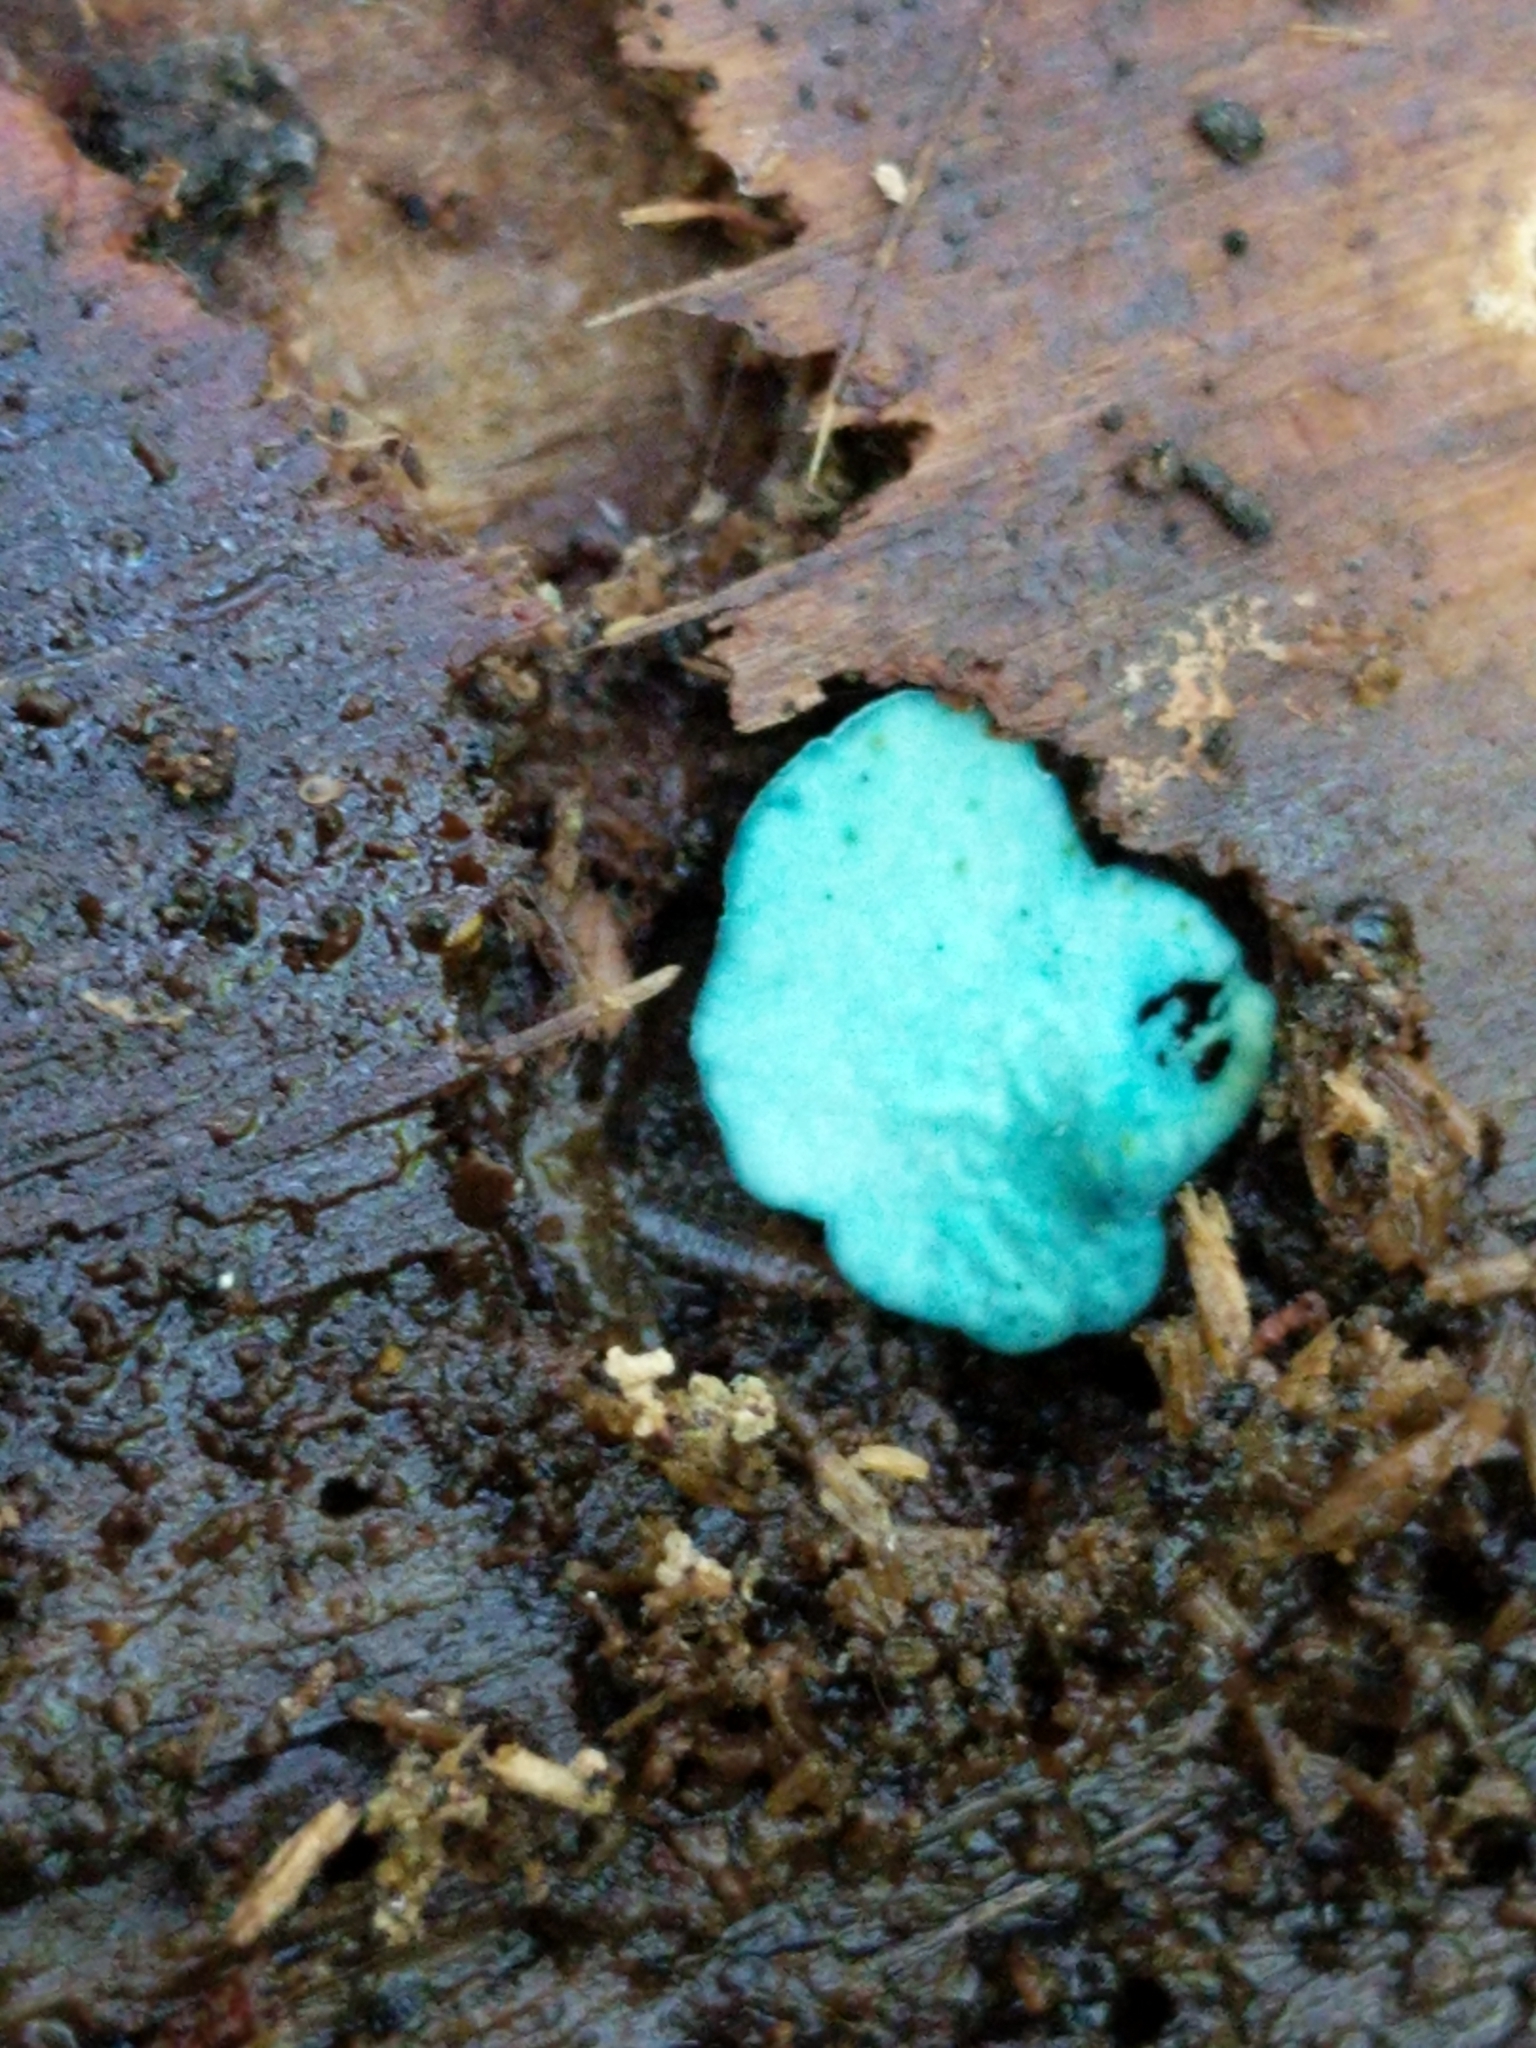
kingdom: Fungi
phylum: Ascomycota
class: Leotiomycetes
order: Helotiales
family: Chlorociboriaceae
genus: Chlorociboria
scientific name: Chlorociboria
